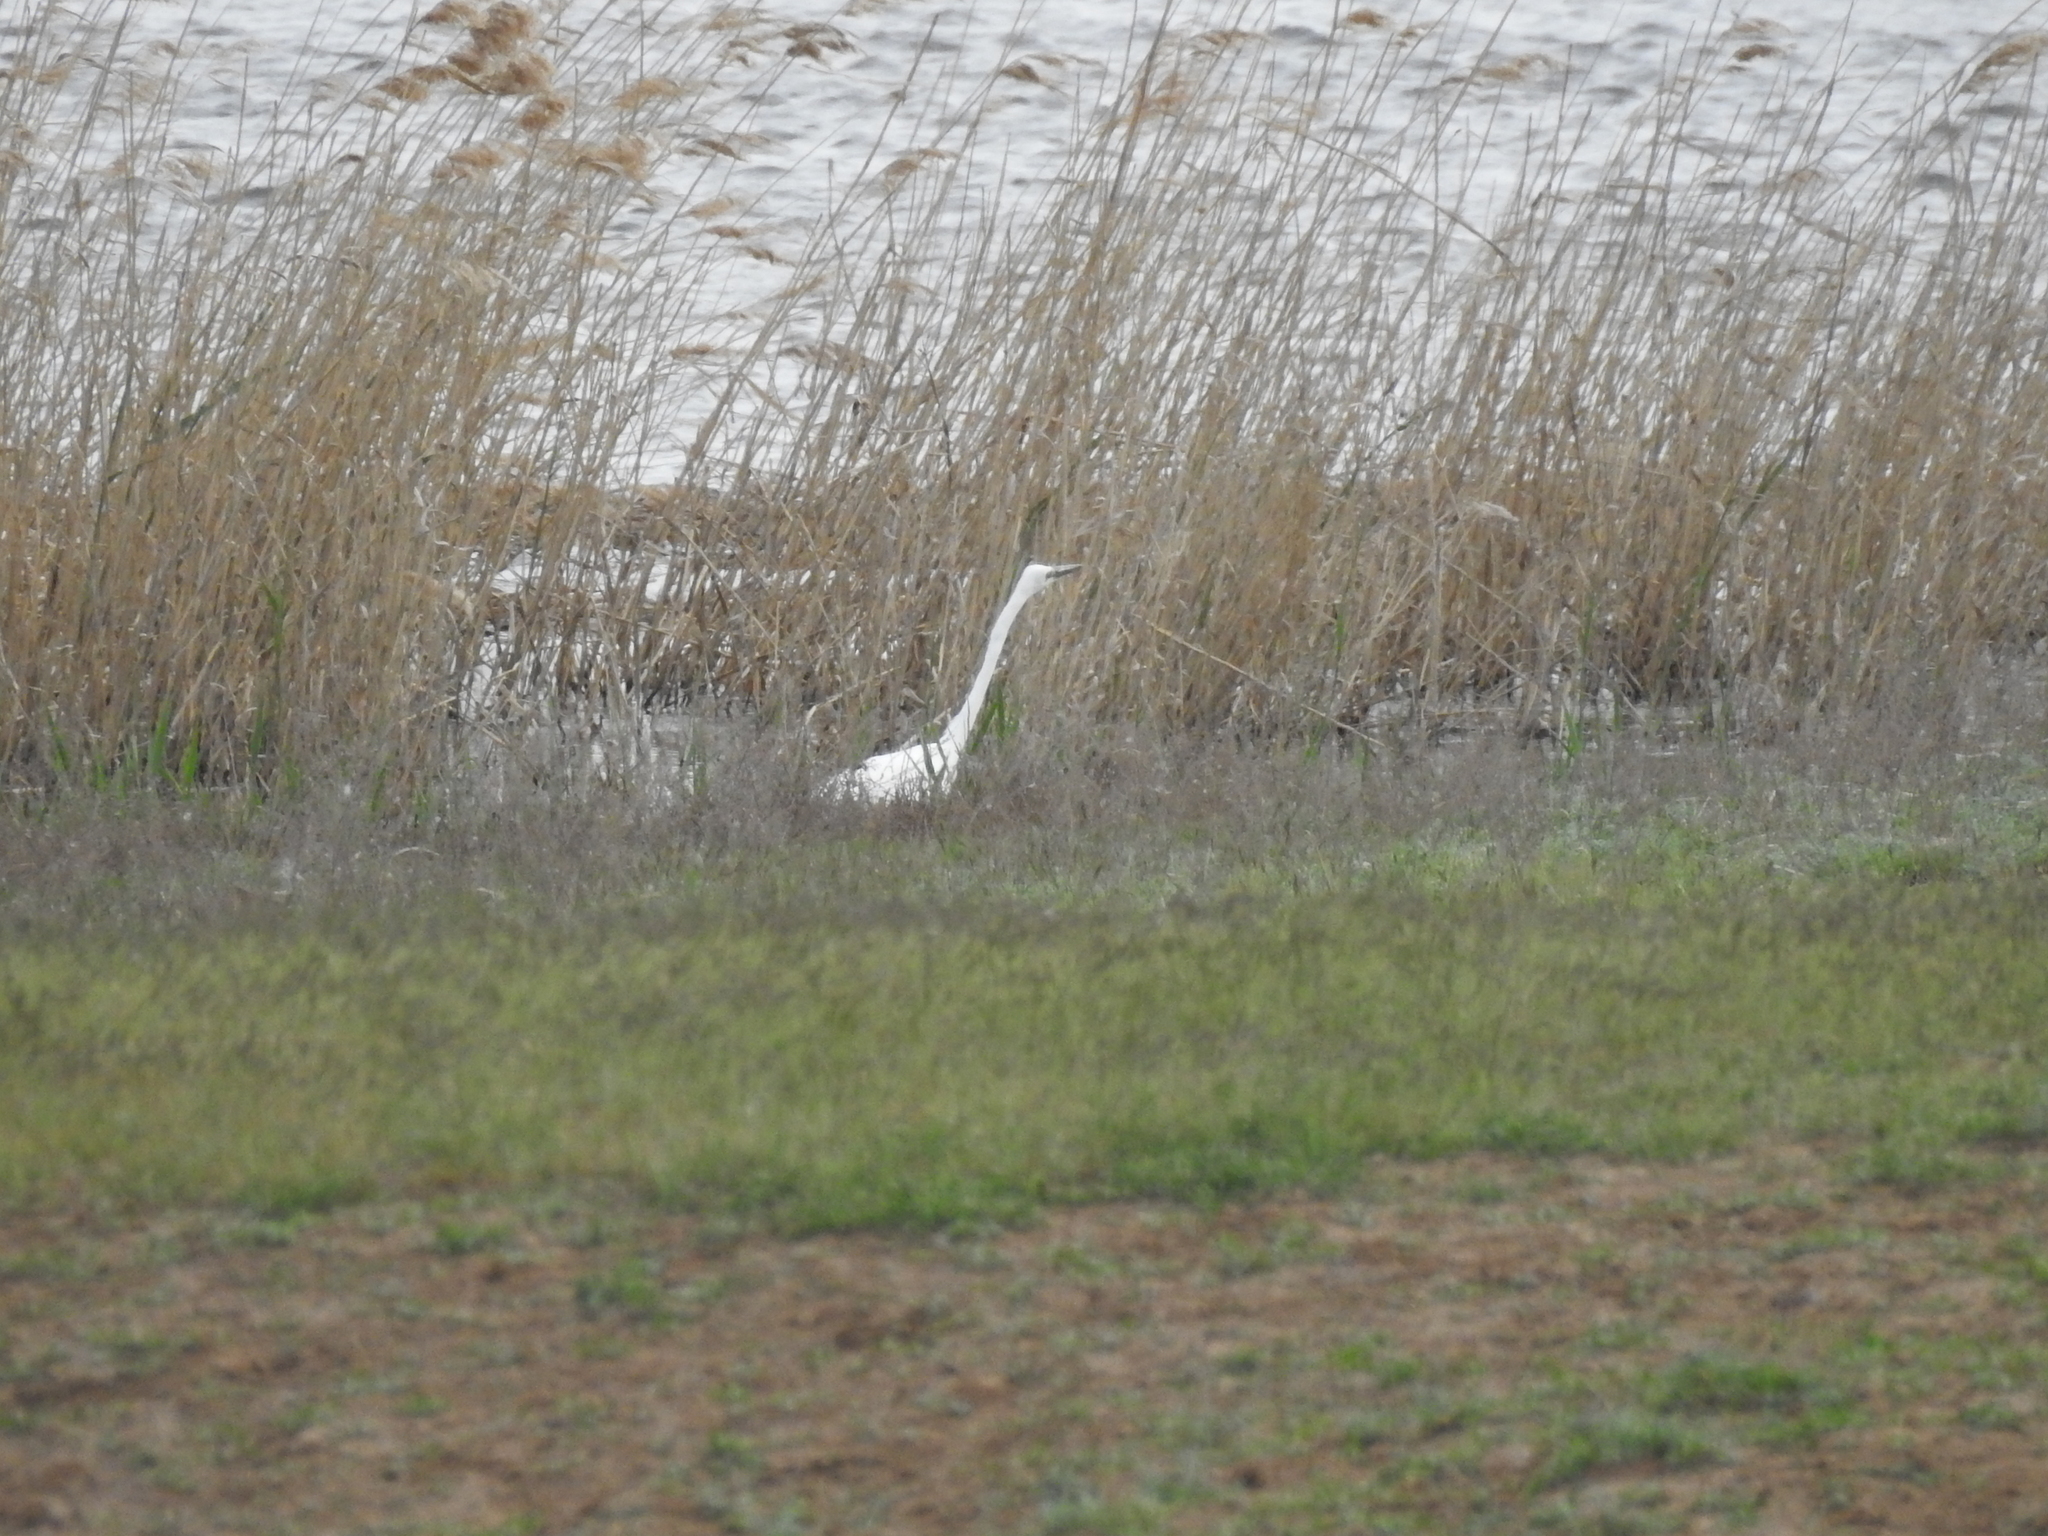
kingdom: Animalia
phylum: Chordata
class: Aves
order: Pelecaniformes
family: Ardeidae
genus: Ardea
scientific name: Ardea alba
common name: Great egret
